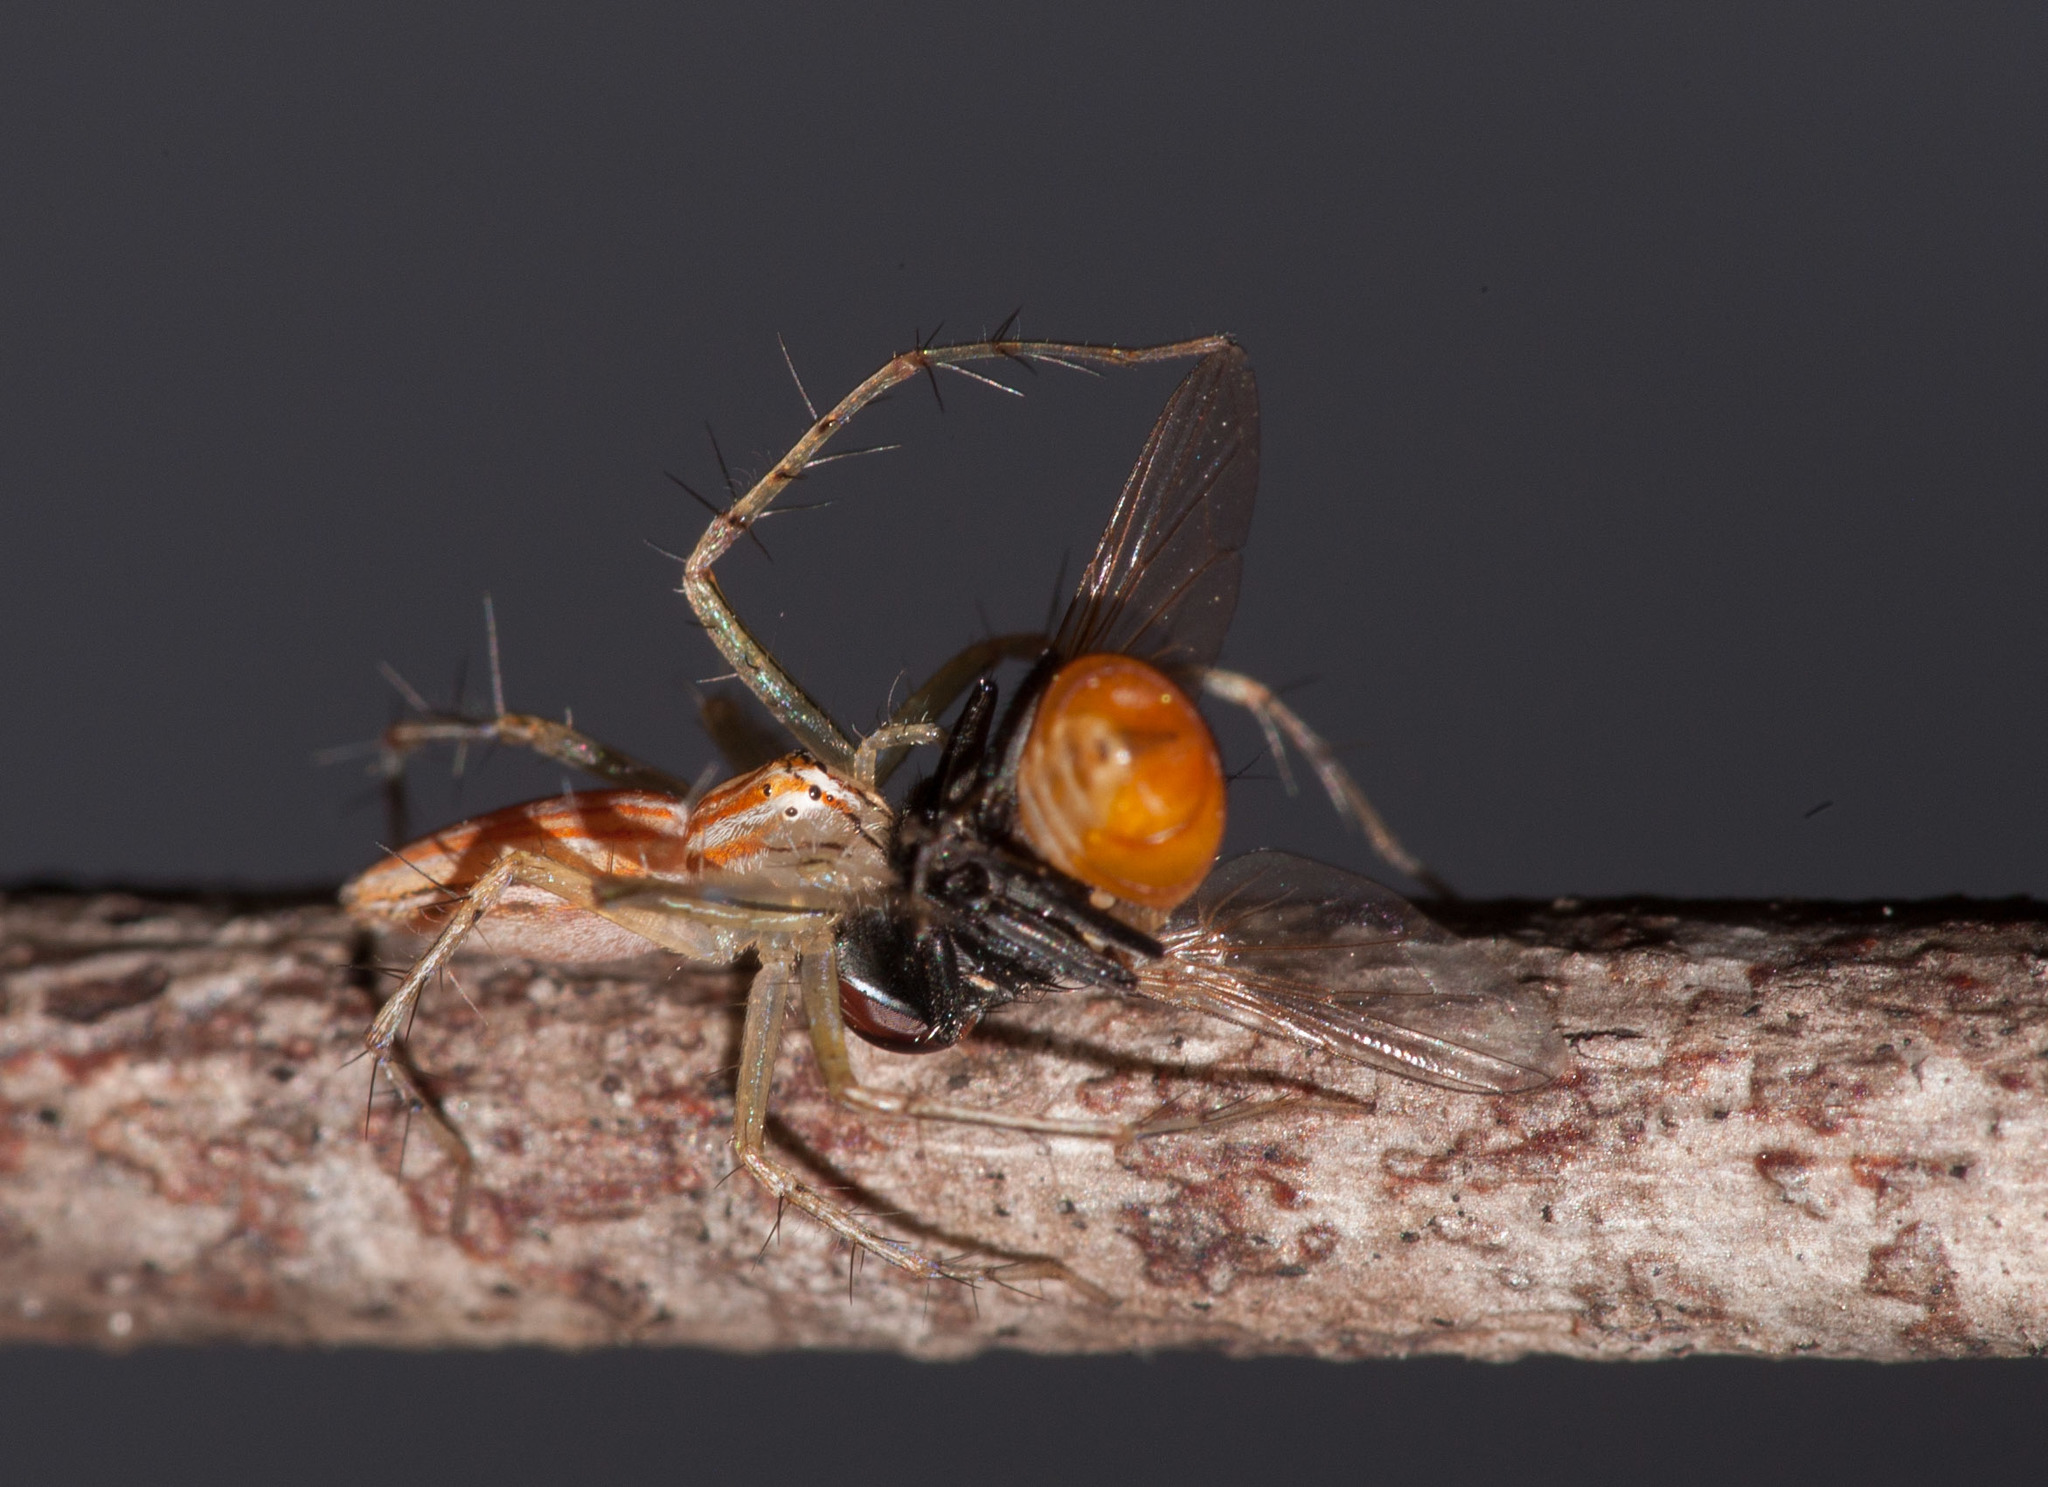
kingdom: Animalia
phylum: Arthropoda
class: Arachnida
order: Araneae
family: Oxyopidae
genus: Oxyopes
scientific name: Oxyopes macilentus
